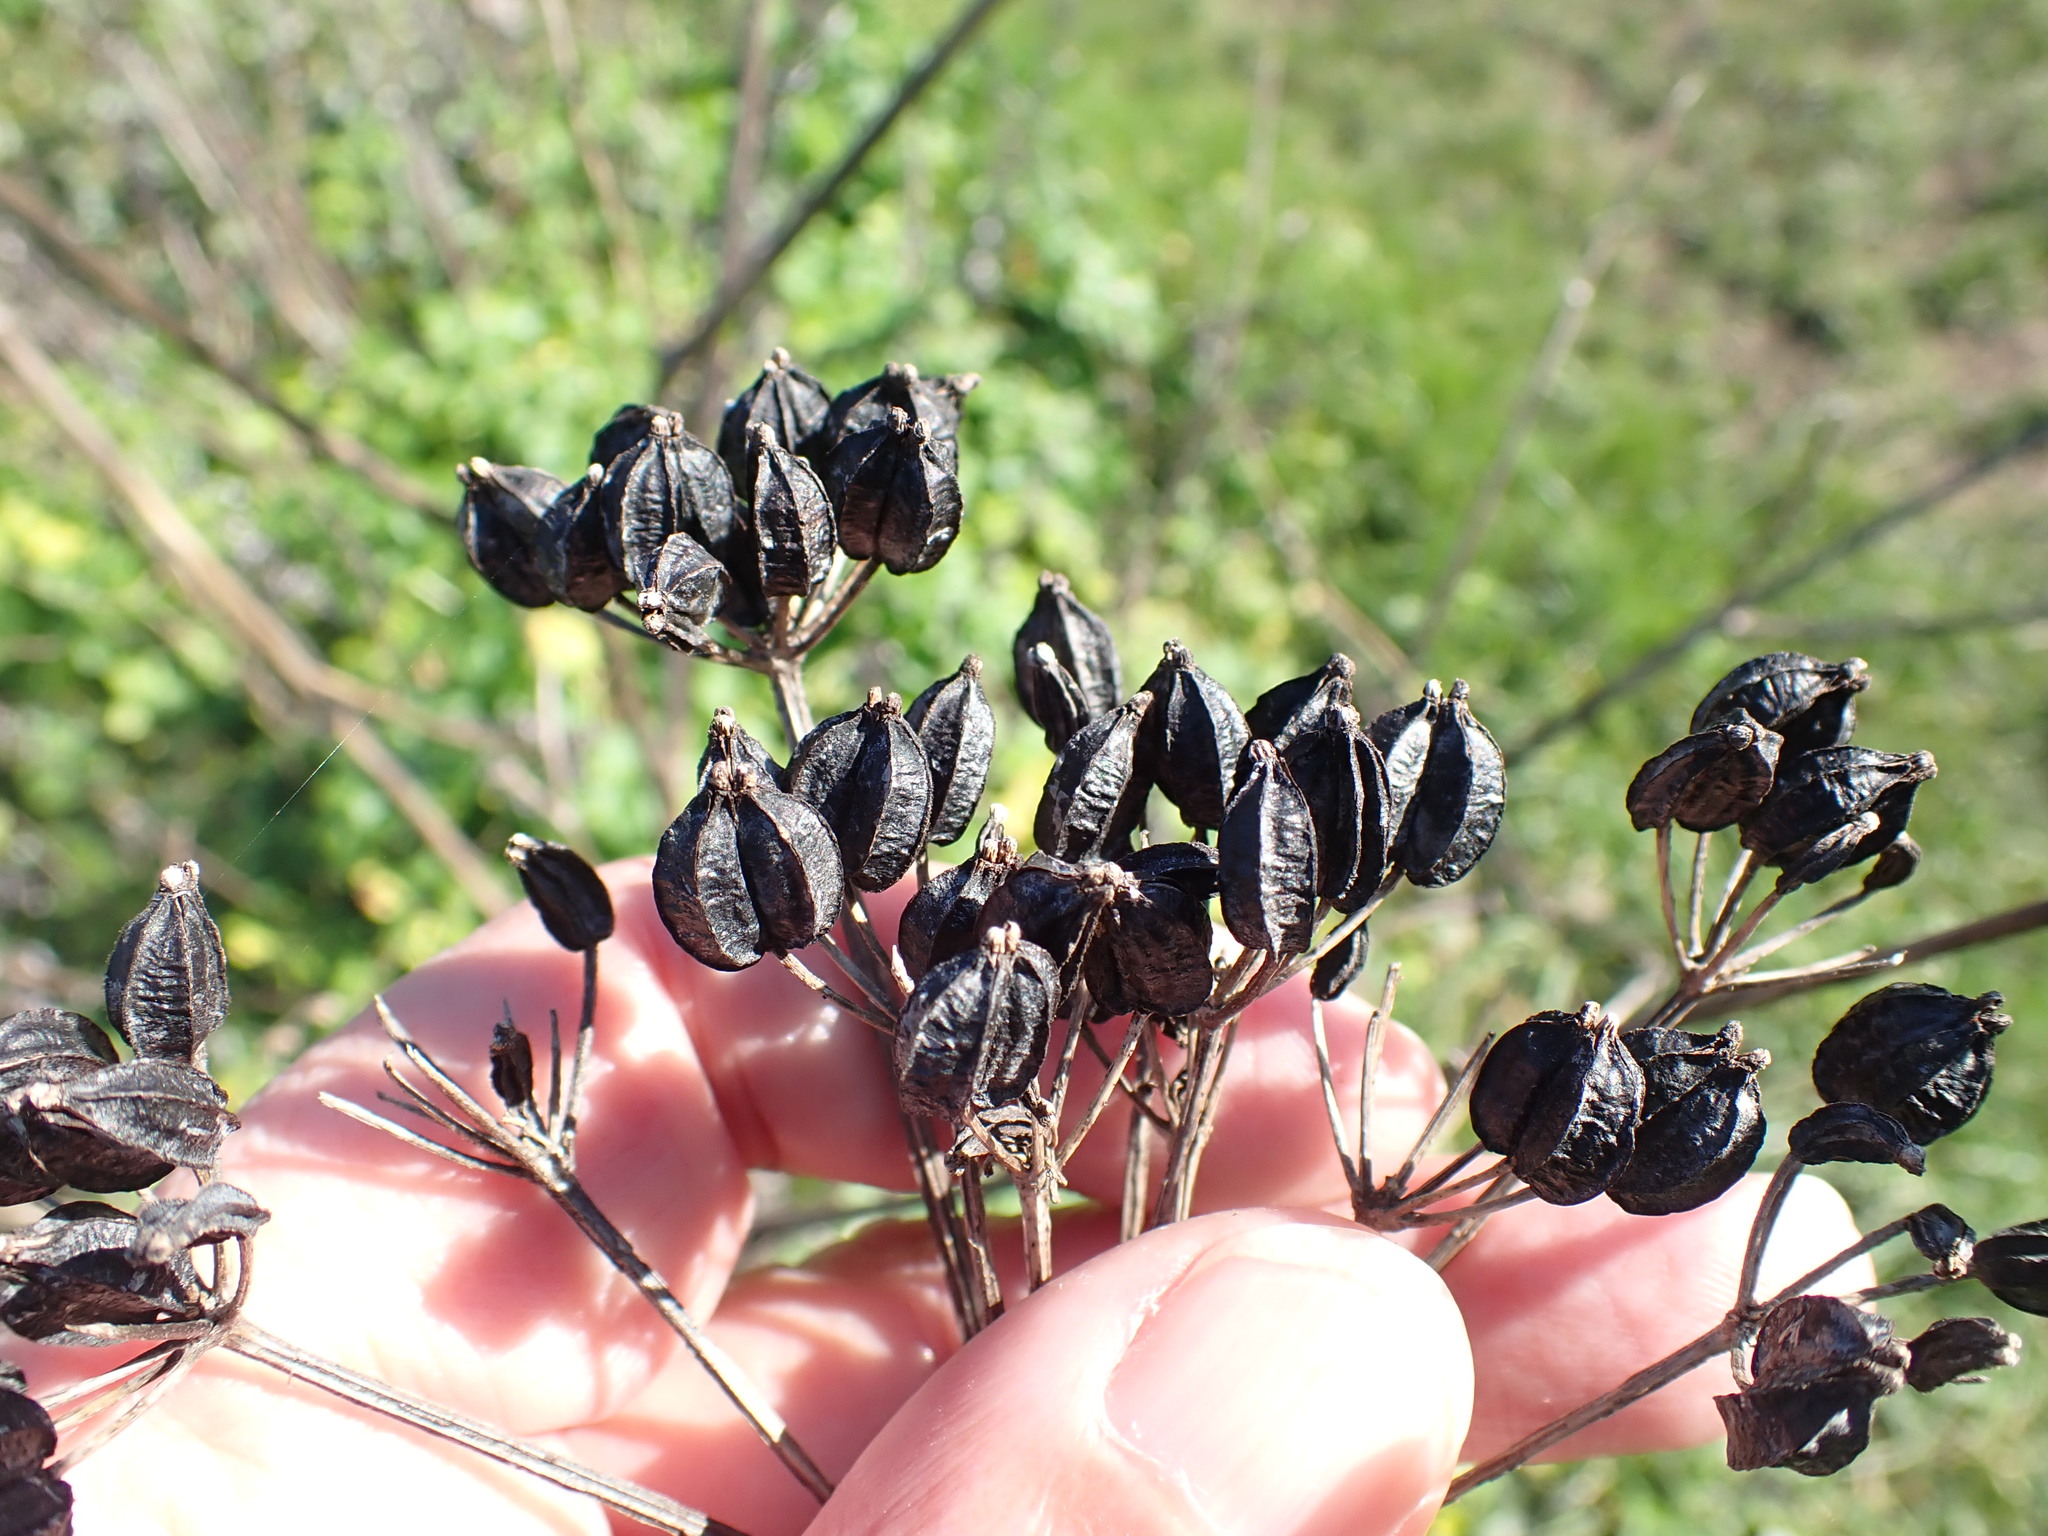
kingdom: Plantae
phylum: Tracheophyta
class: Magnoliopsida
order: Apiales
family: Apiaceae
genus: Smyrnium
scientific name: Smyrnium olusatrum
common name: Alexanders
